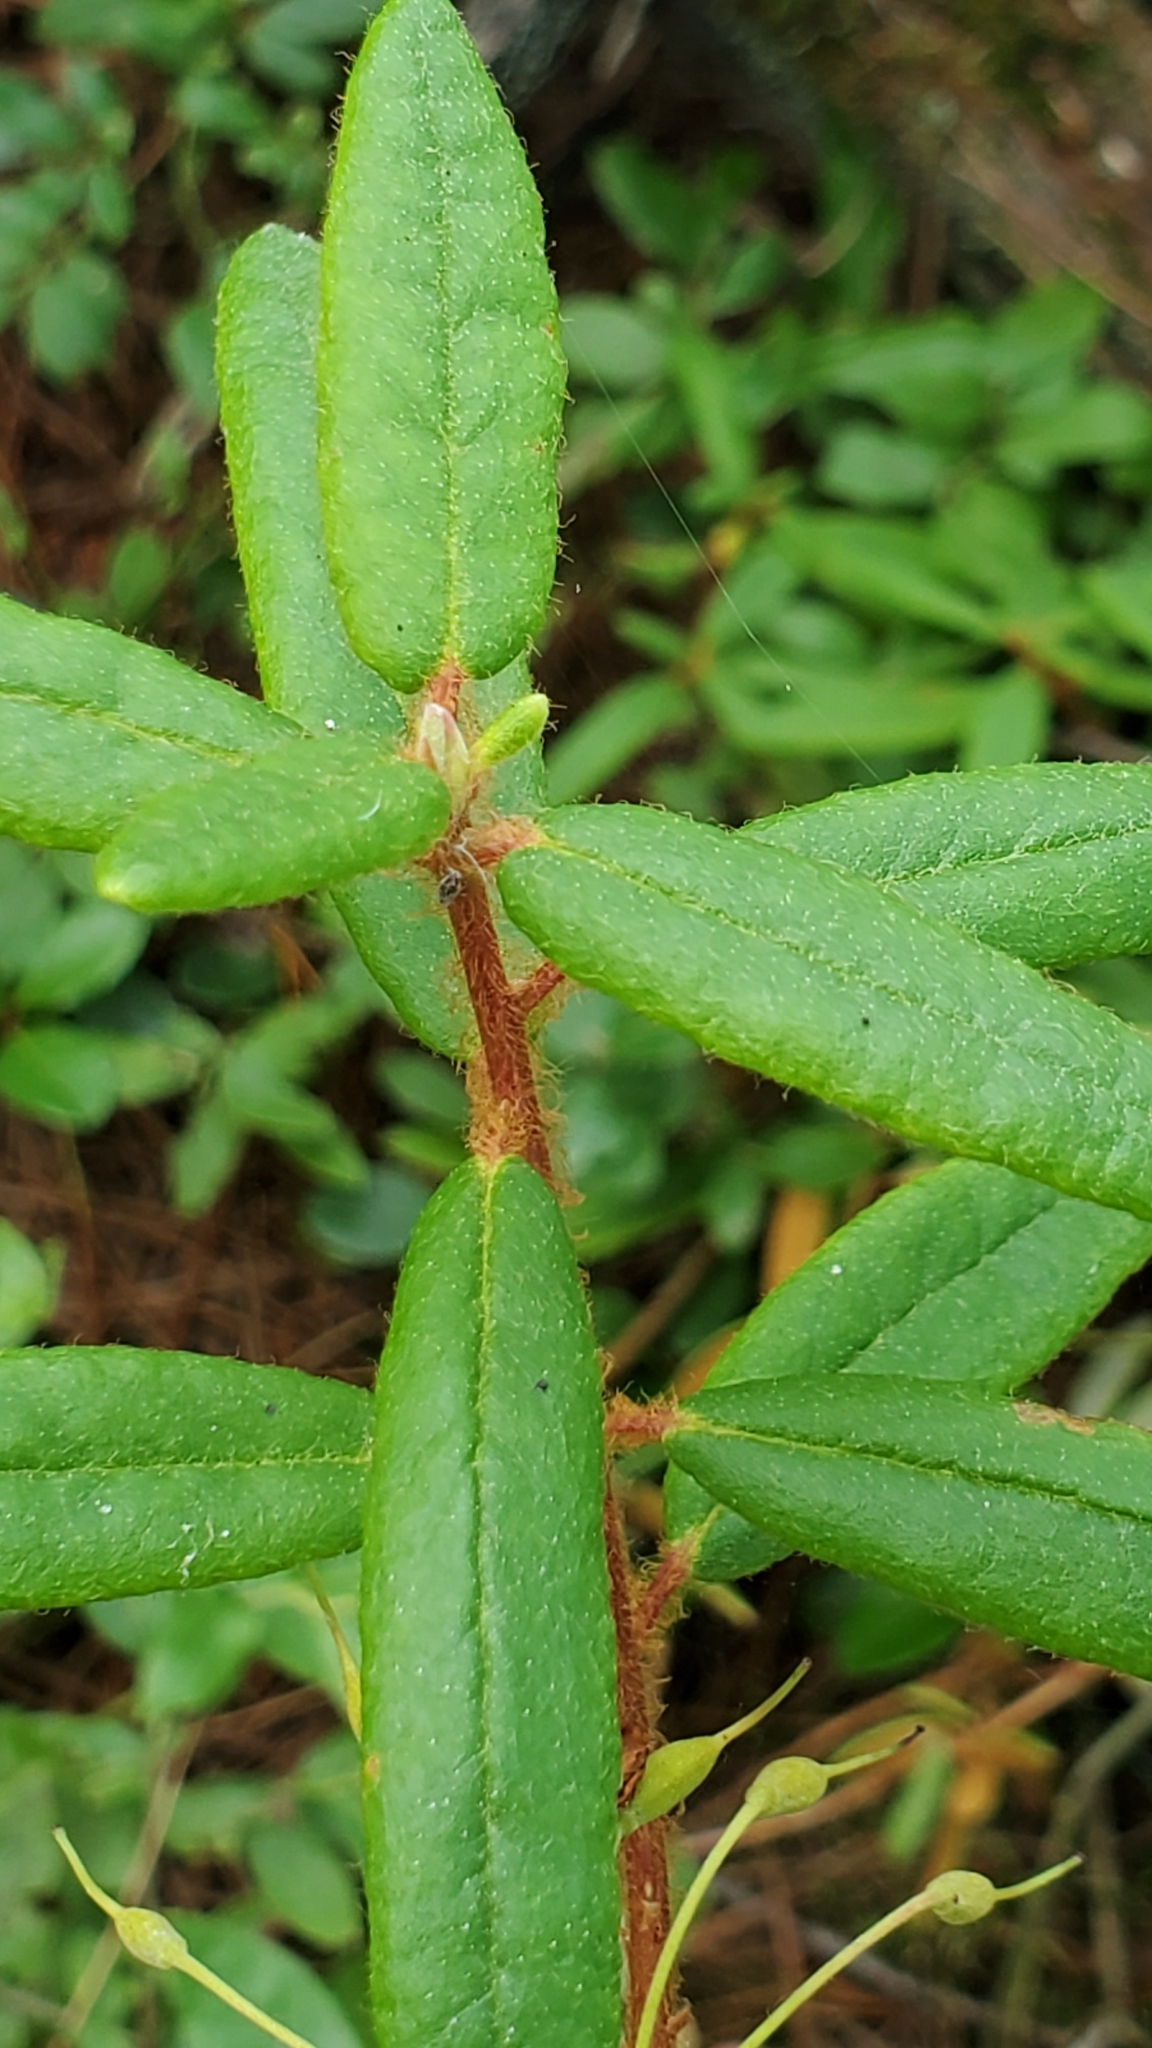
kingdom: Plantae
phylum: Tracheophyta
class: Magnoliopsida
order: Ericales
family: Ericaceae
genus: Rhododendron
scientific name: Rhododendron groenlandicum
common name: Bog labrador tea
